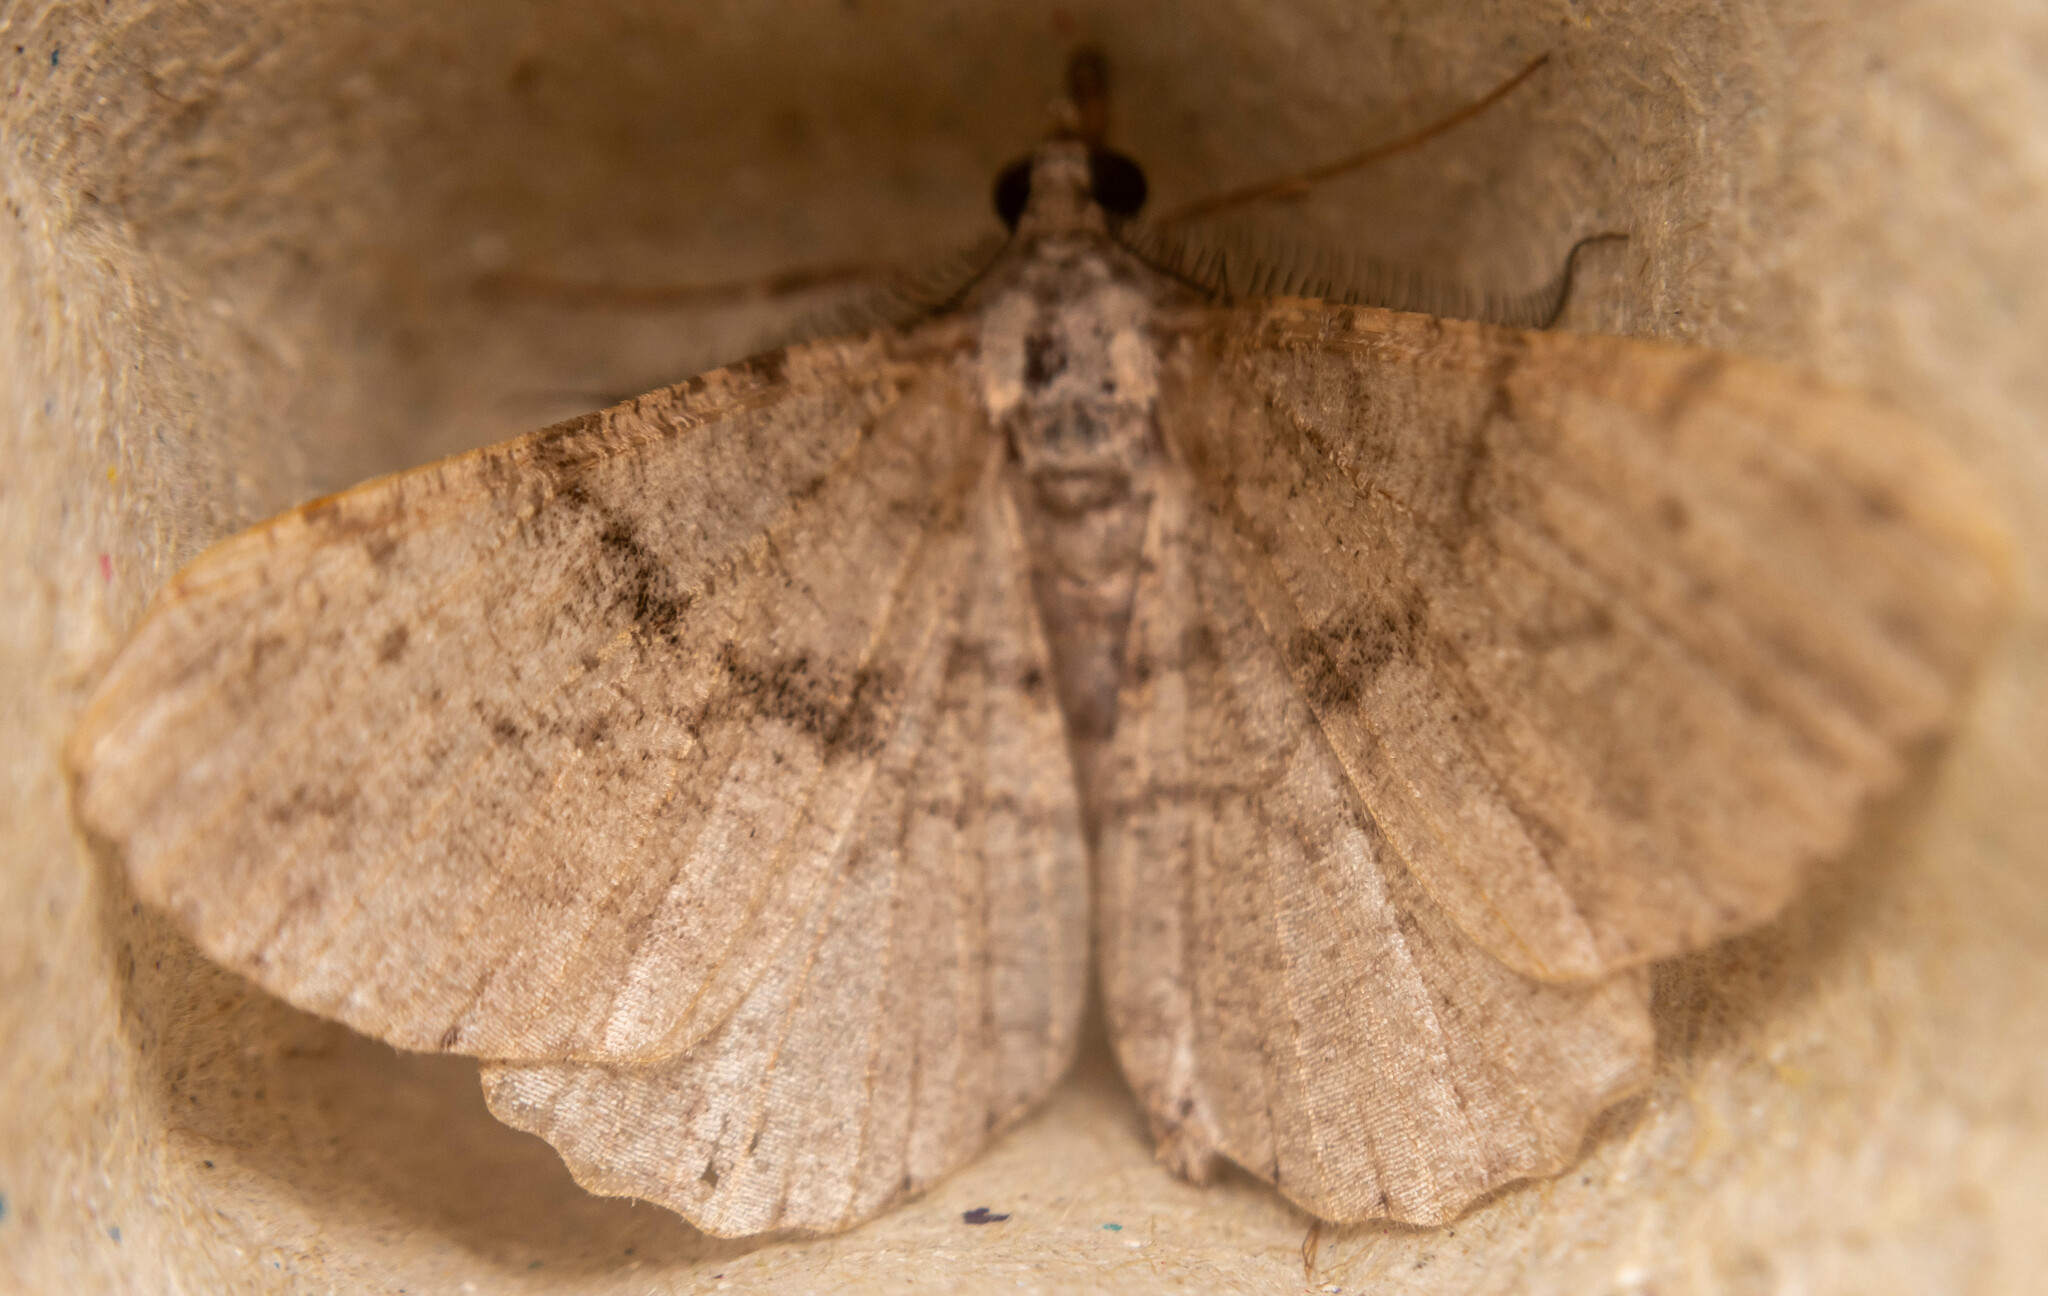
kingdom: Animalia
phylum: Arthropoda
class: Insecta
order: Lepidoptera
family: Geometridae
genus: Peribatodes
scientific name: Peribatodes rhomboidaria
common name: Willow beauty
